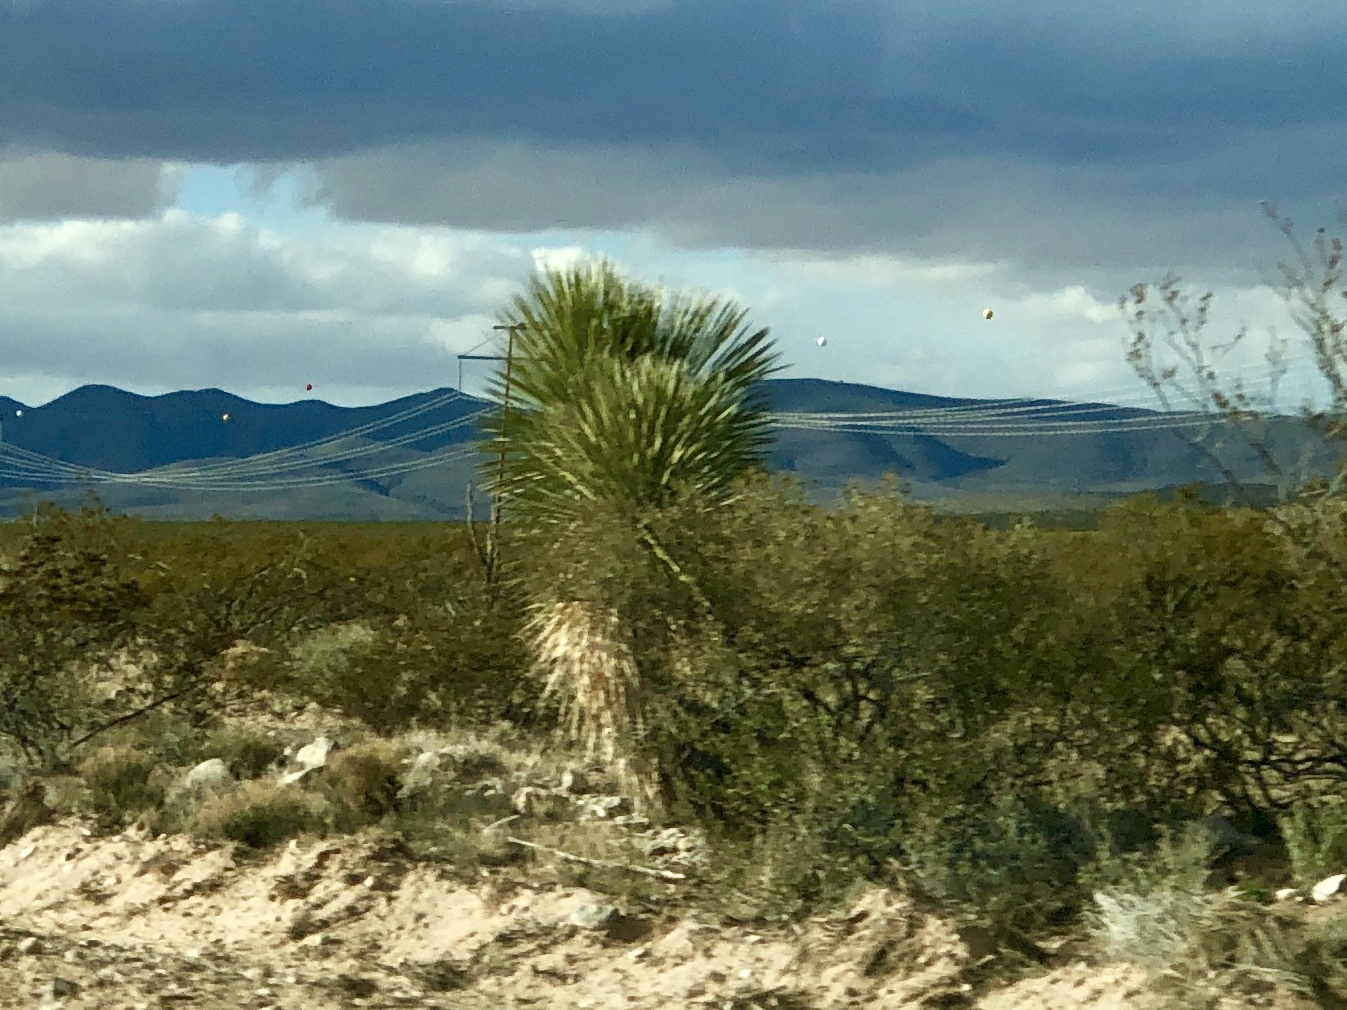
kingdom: Plantae
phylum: Tracheophyta
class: Liliopsida
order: Asparagales
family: Asparagaceae
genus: Yucca
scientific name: Yucca elata
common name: Palmella
